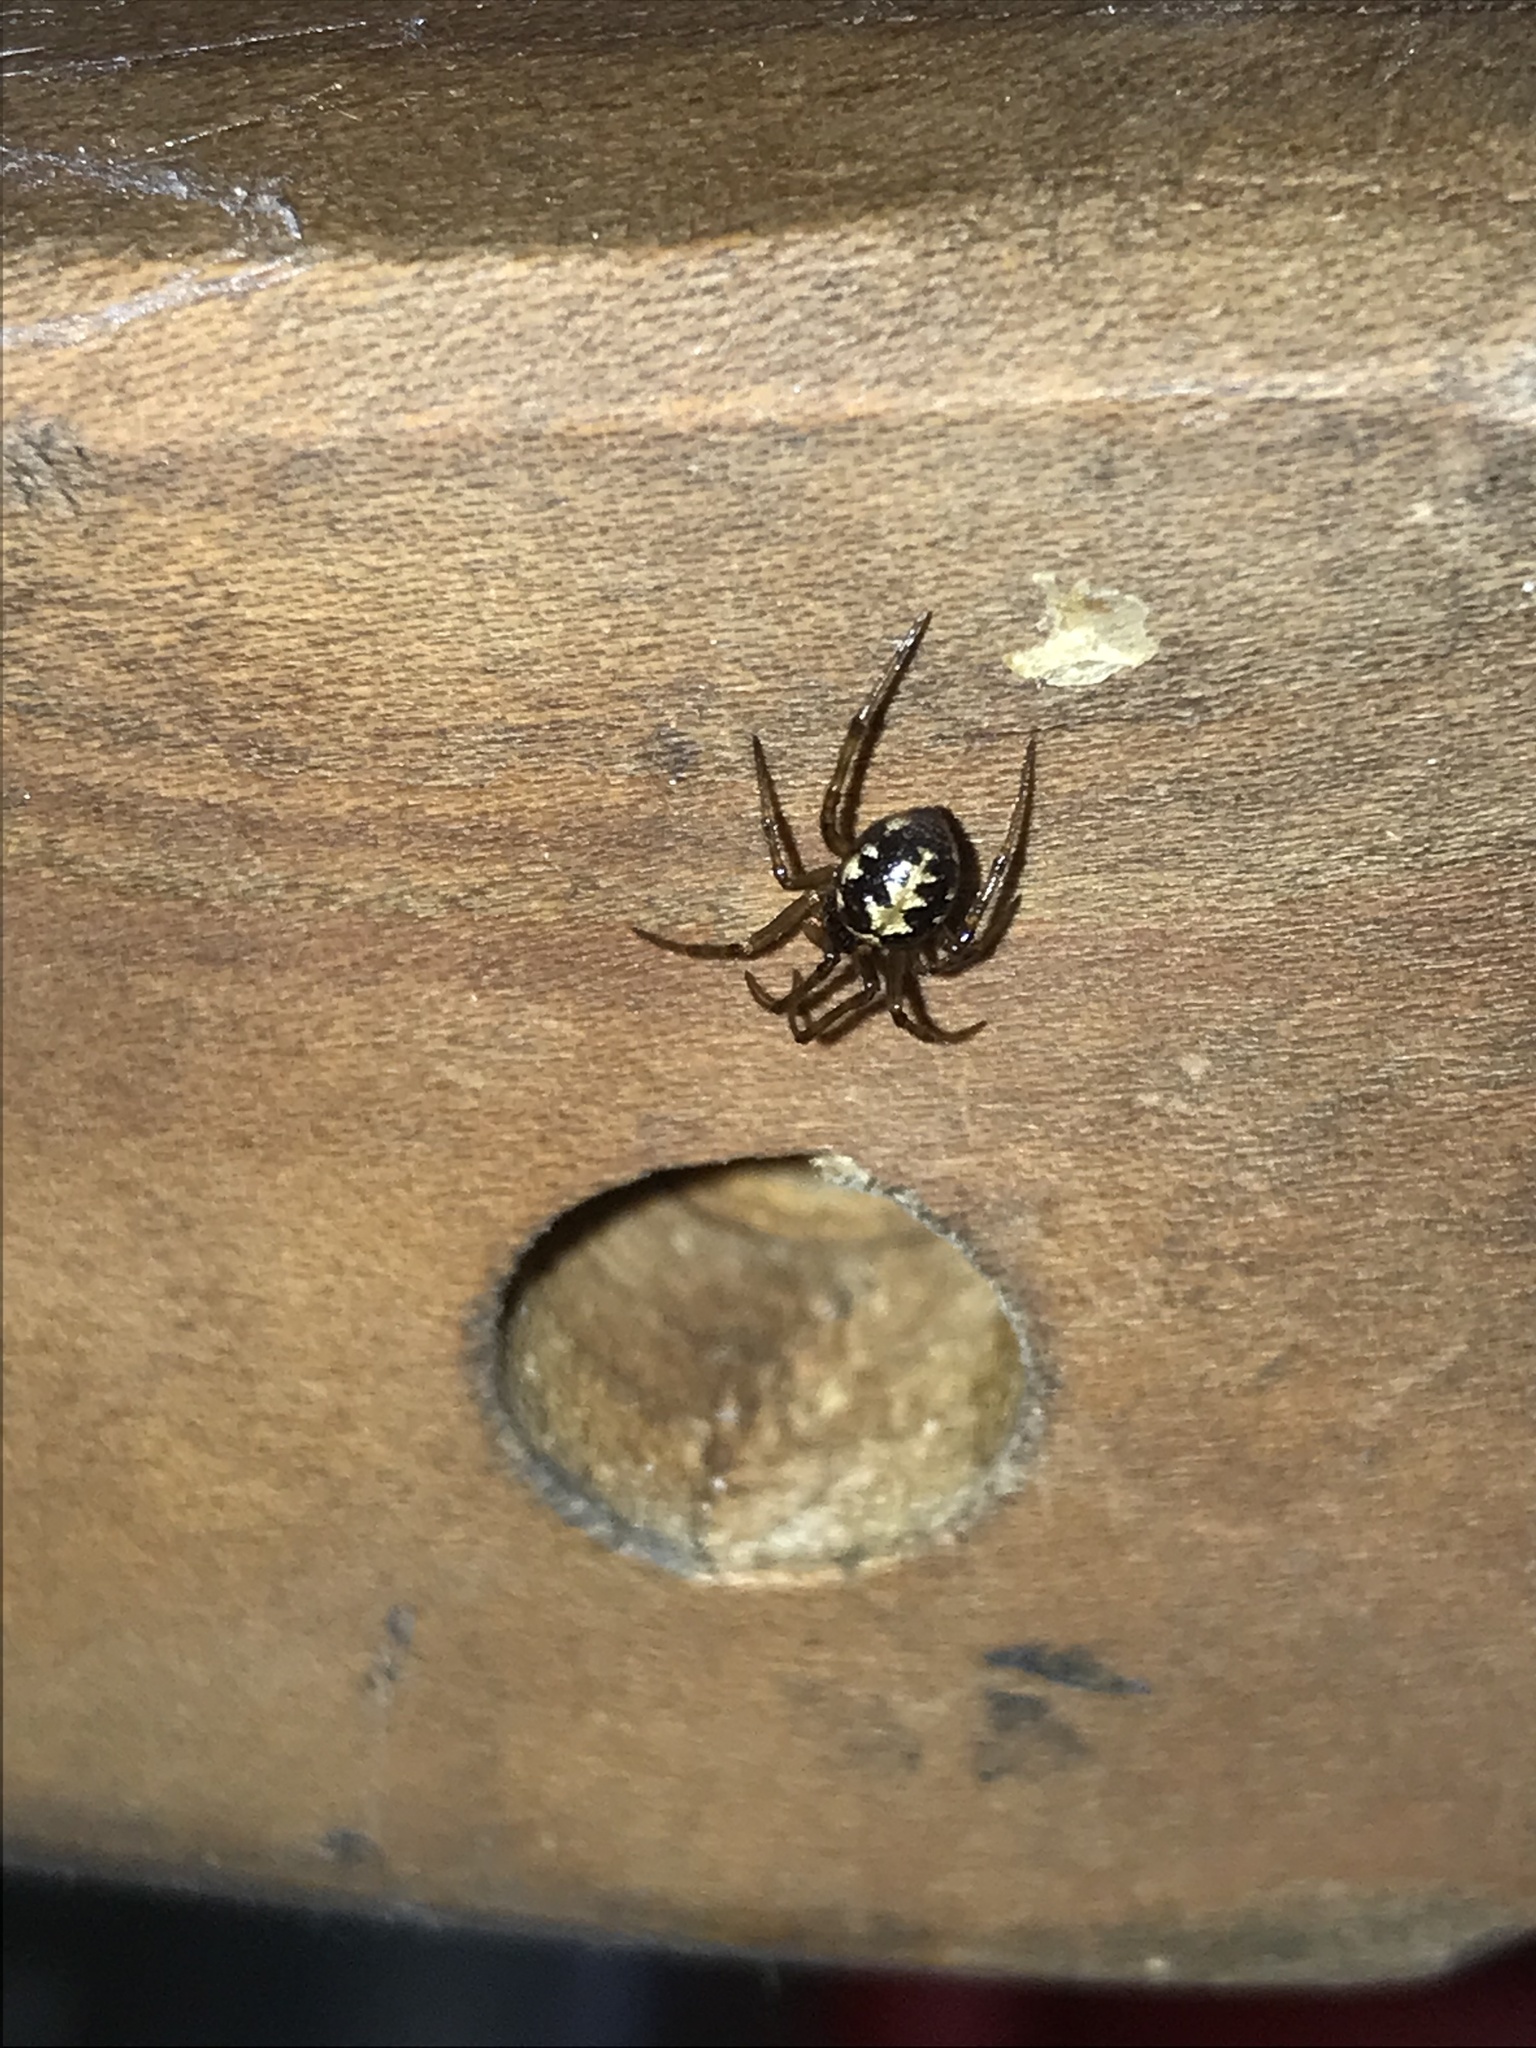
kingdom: Animalia
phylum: Arthropoda
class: Arachnida
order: Araneae
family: Theridiidae
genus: Steatoda
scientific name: Steatoda triangulosa
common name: Triangulate bud spider
